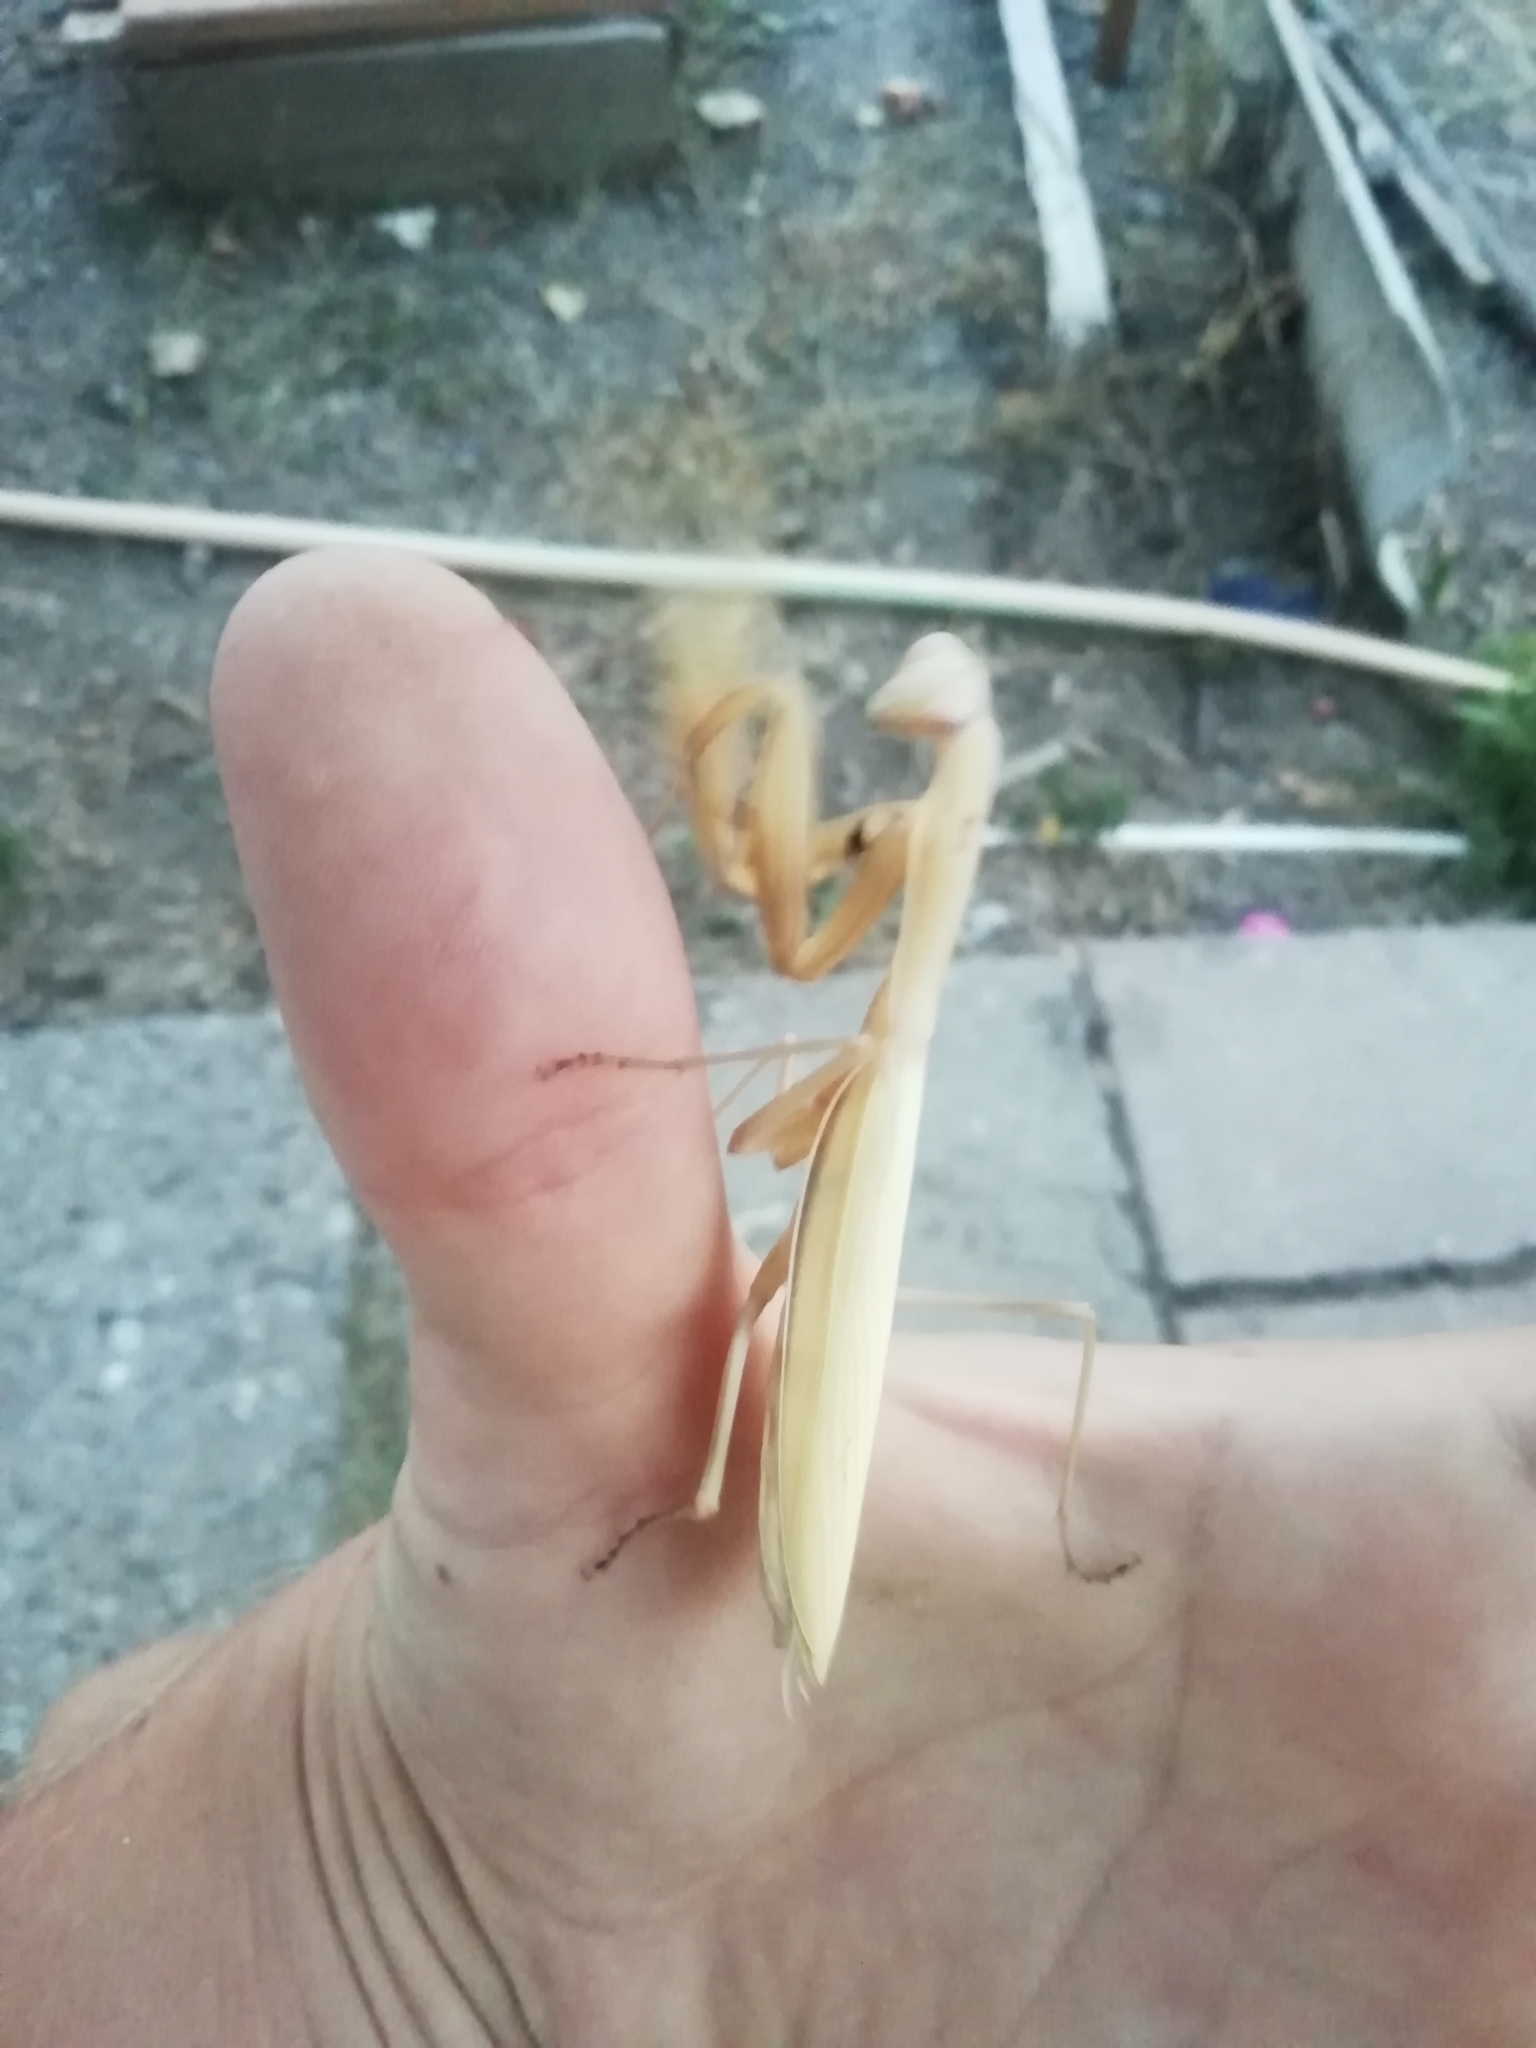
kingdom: Animalia
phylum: Arthropoda
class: Insecta
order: Mantodea
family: Mantidae
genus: Mantis
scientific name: Mantis religiosa
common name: Praying mantis
